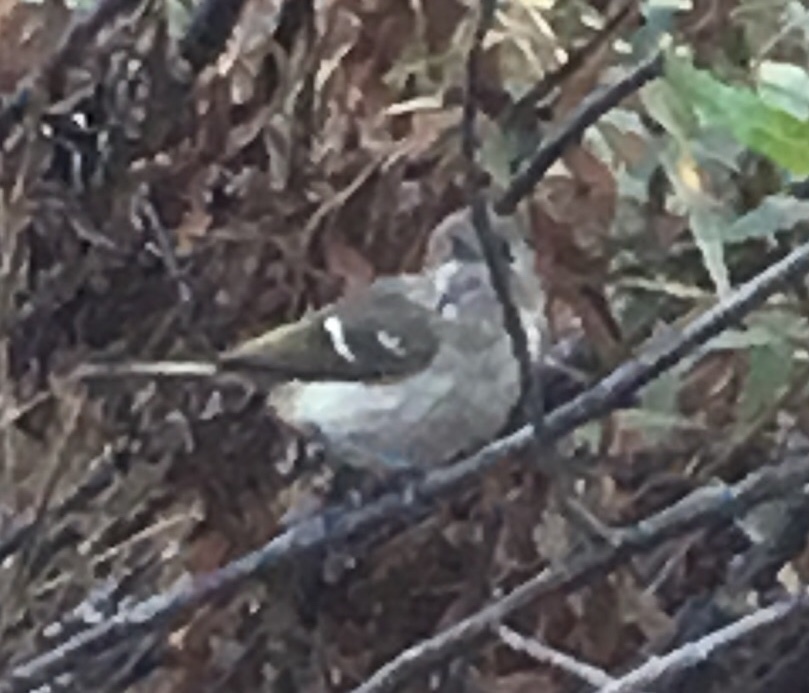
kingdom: Animalia
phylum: Chordata
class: Aves
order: Passeriformes
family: Vireonidae
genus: Vireo
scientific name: Vireo huttoni
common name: Hutton's vireo
